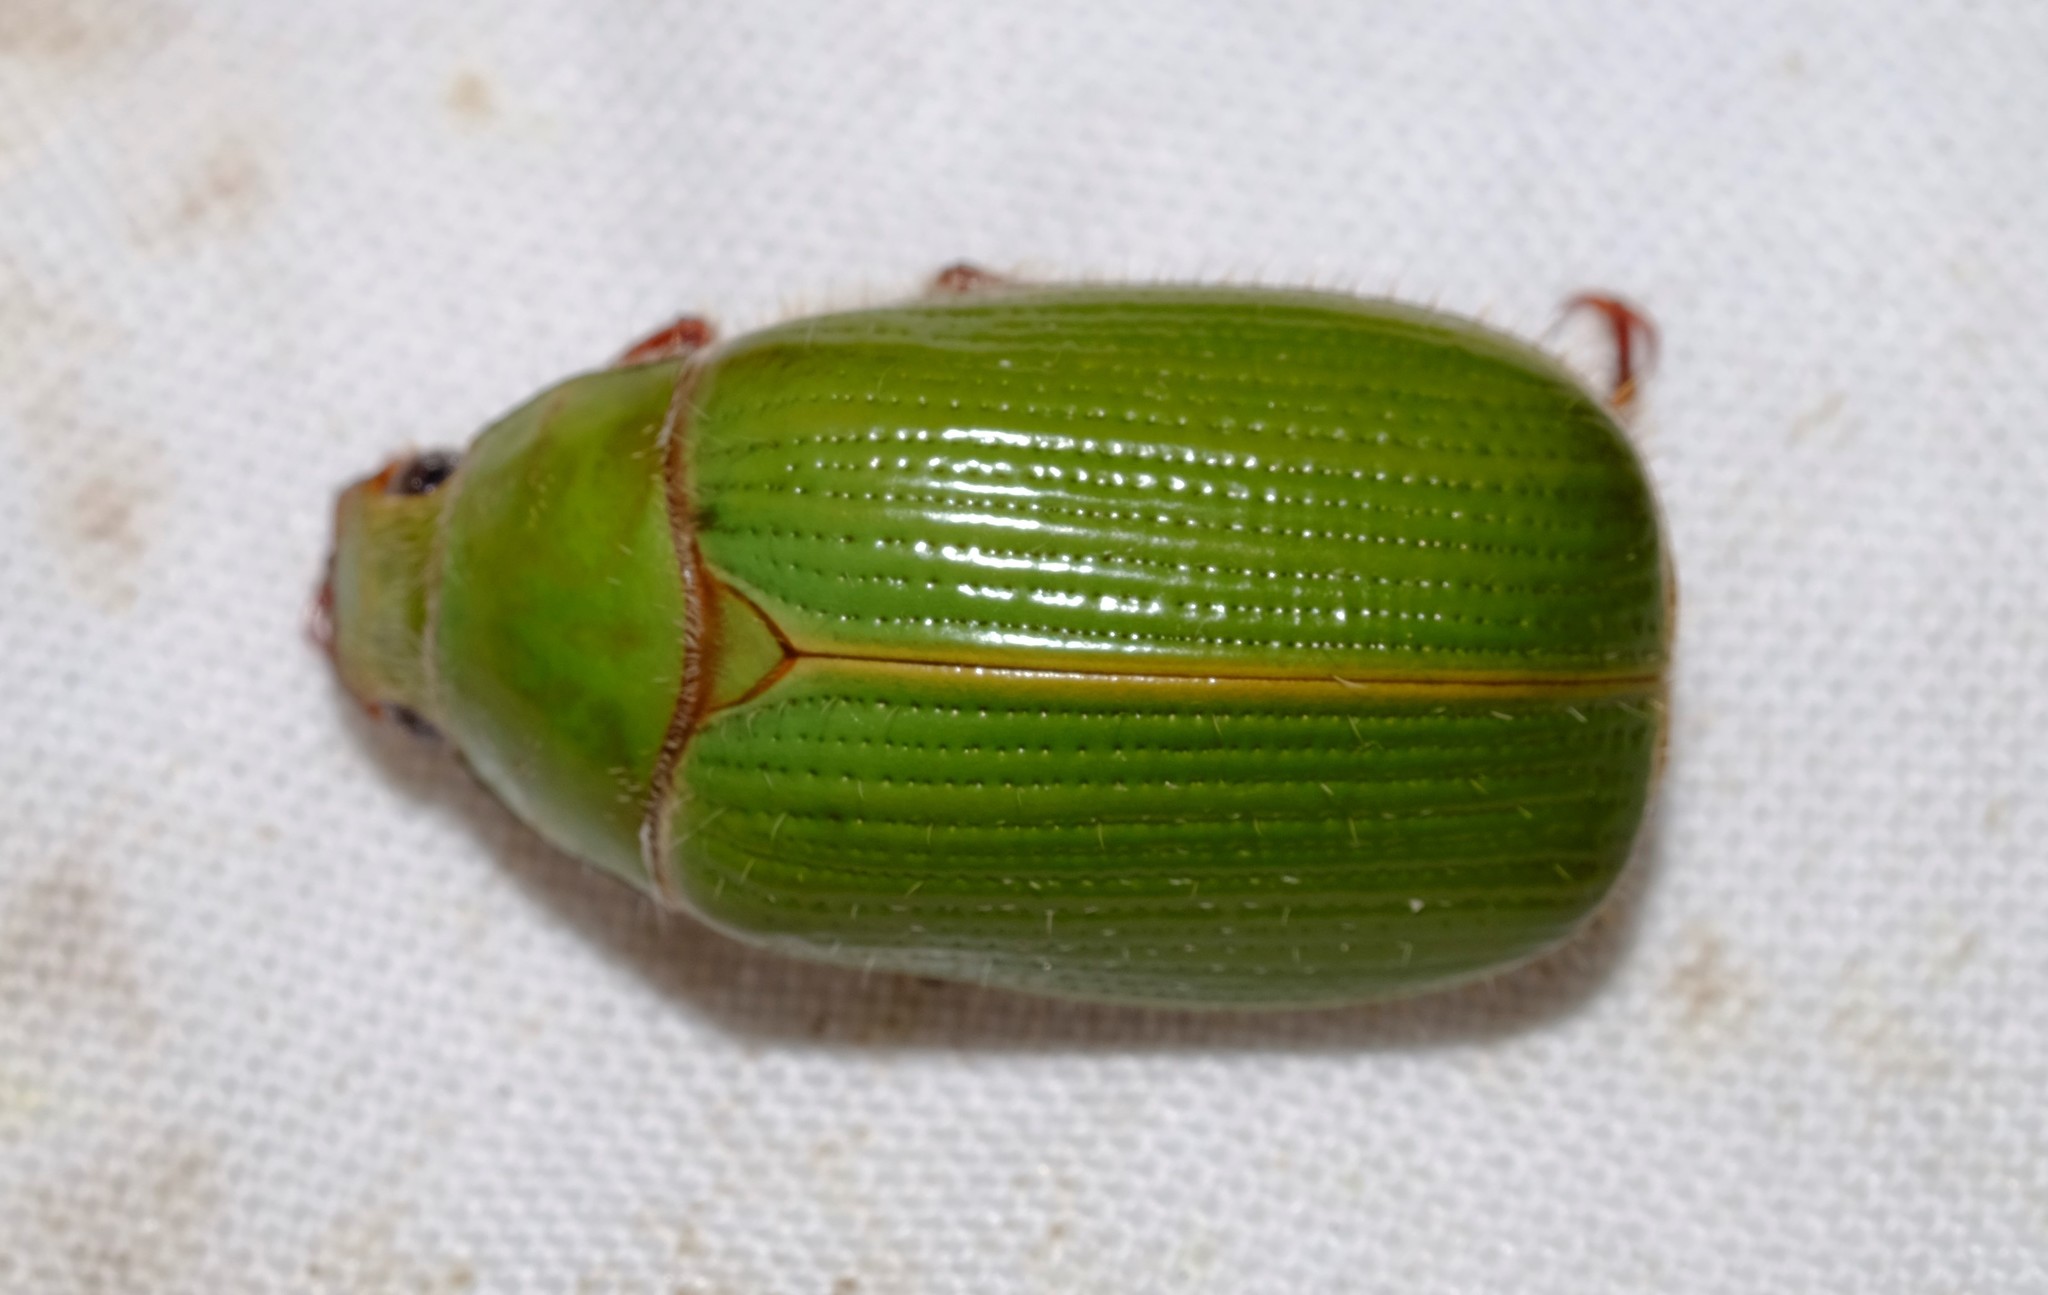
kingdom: Animalia
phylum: Arthropoda
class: Insecta
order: Coleoptera
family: Scarabaeidae
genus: Xylonichus
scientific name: Xylonichus eucalypti
